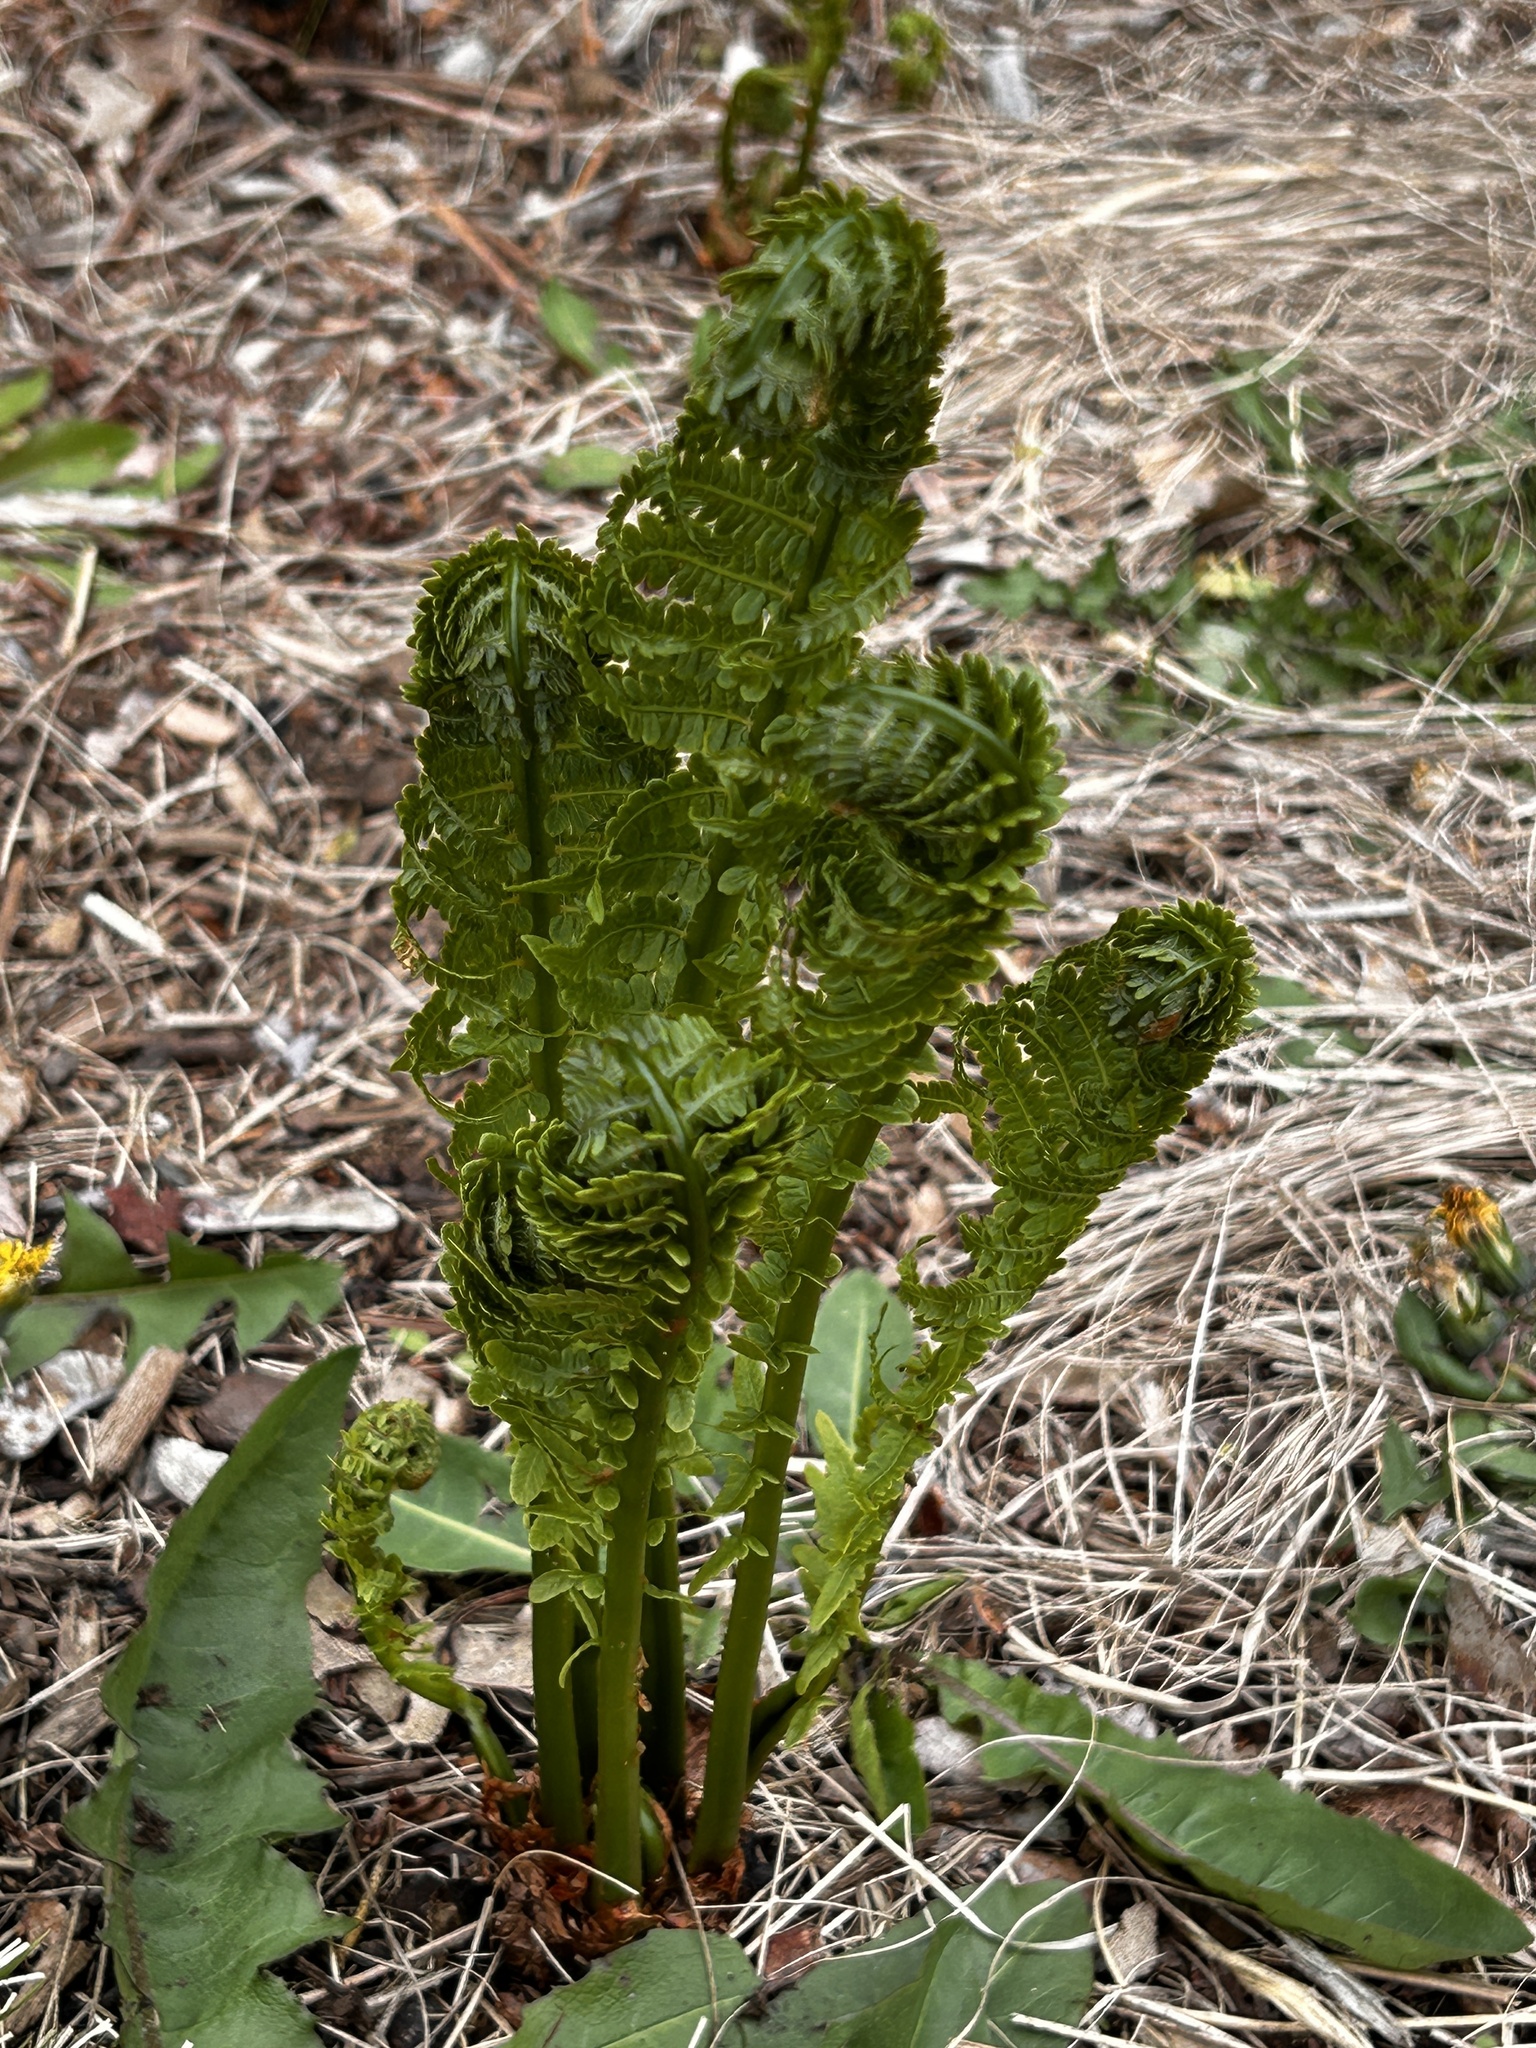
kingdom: Plantae
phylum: Tracheophyta
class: Polypodiopsida
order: Polypodiales
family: Onocleaceae
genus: Matteuccia
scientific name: Matteuccia struthiopteris
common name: Ostrich fern
